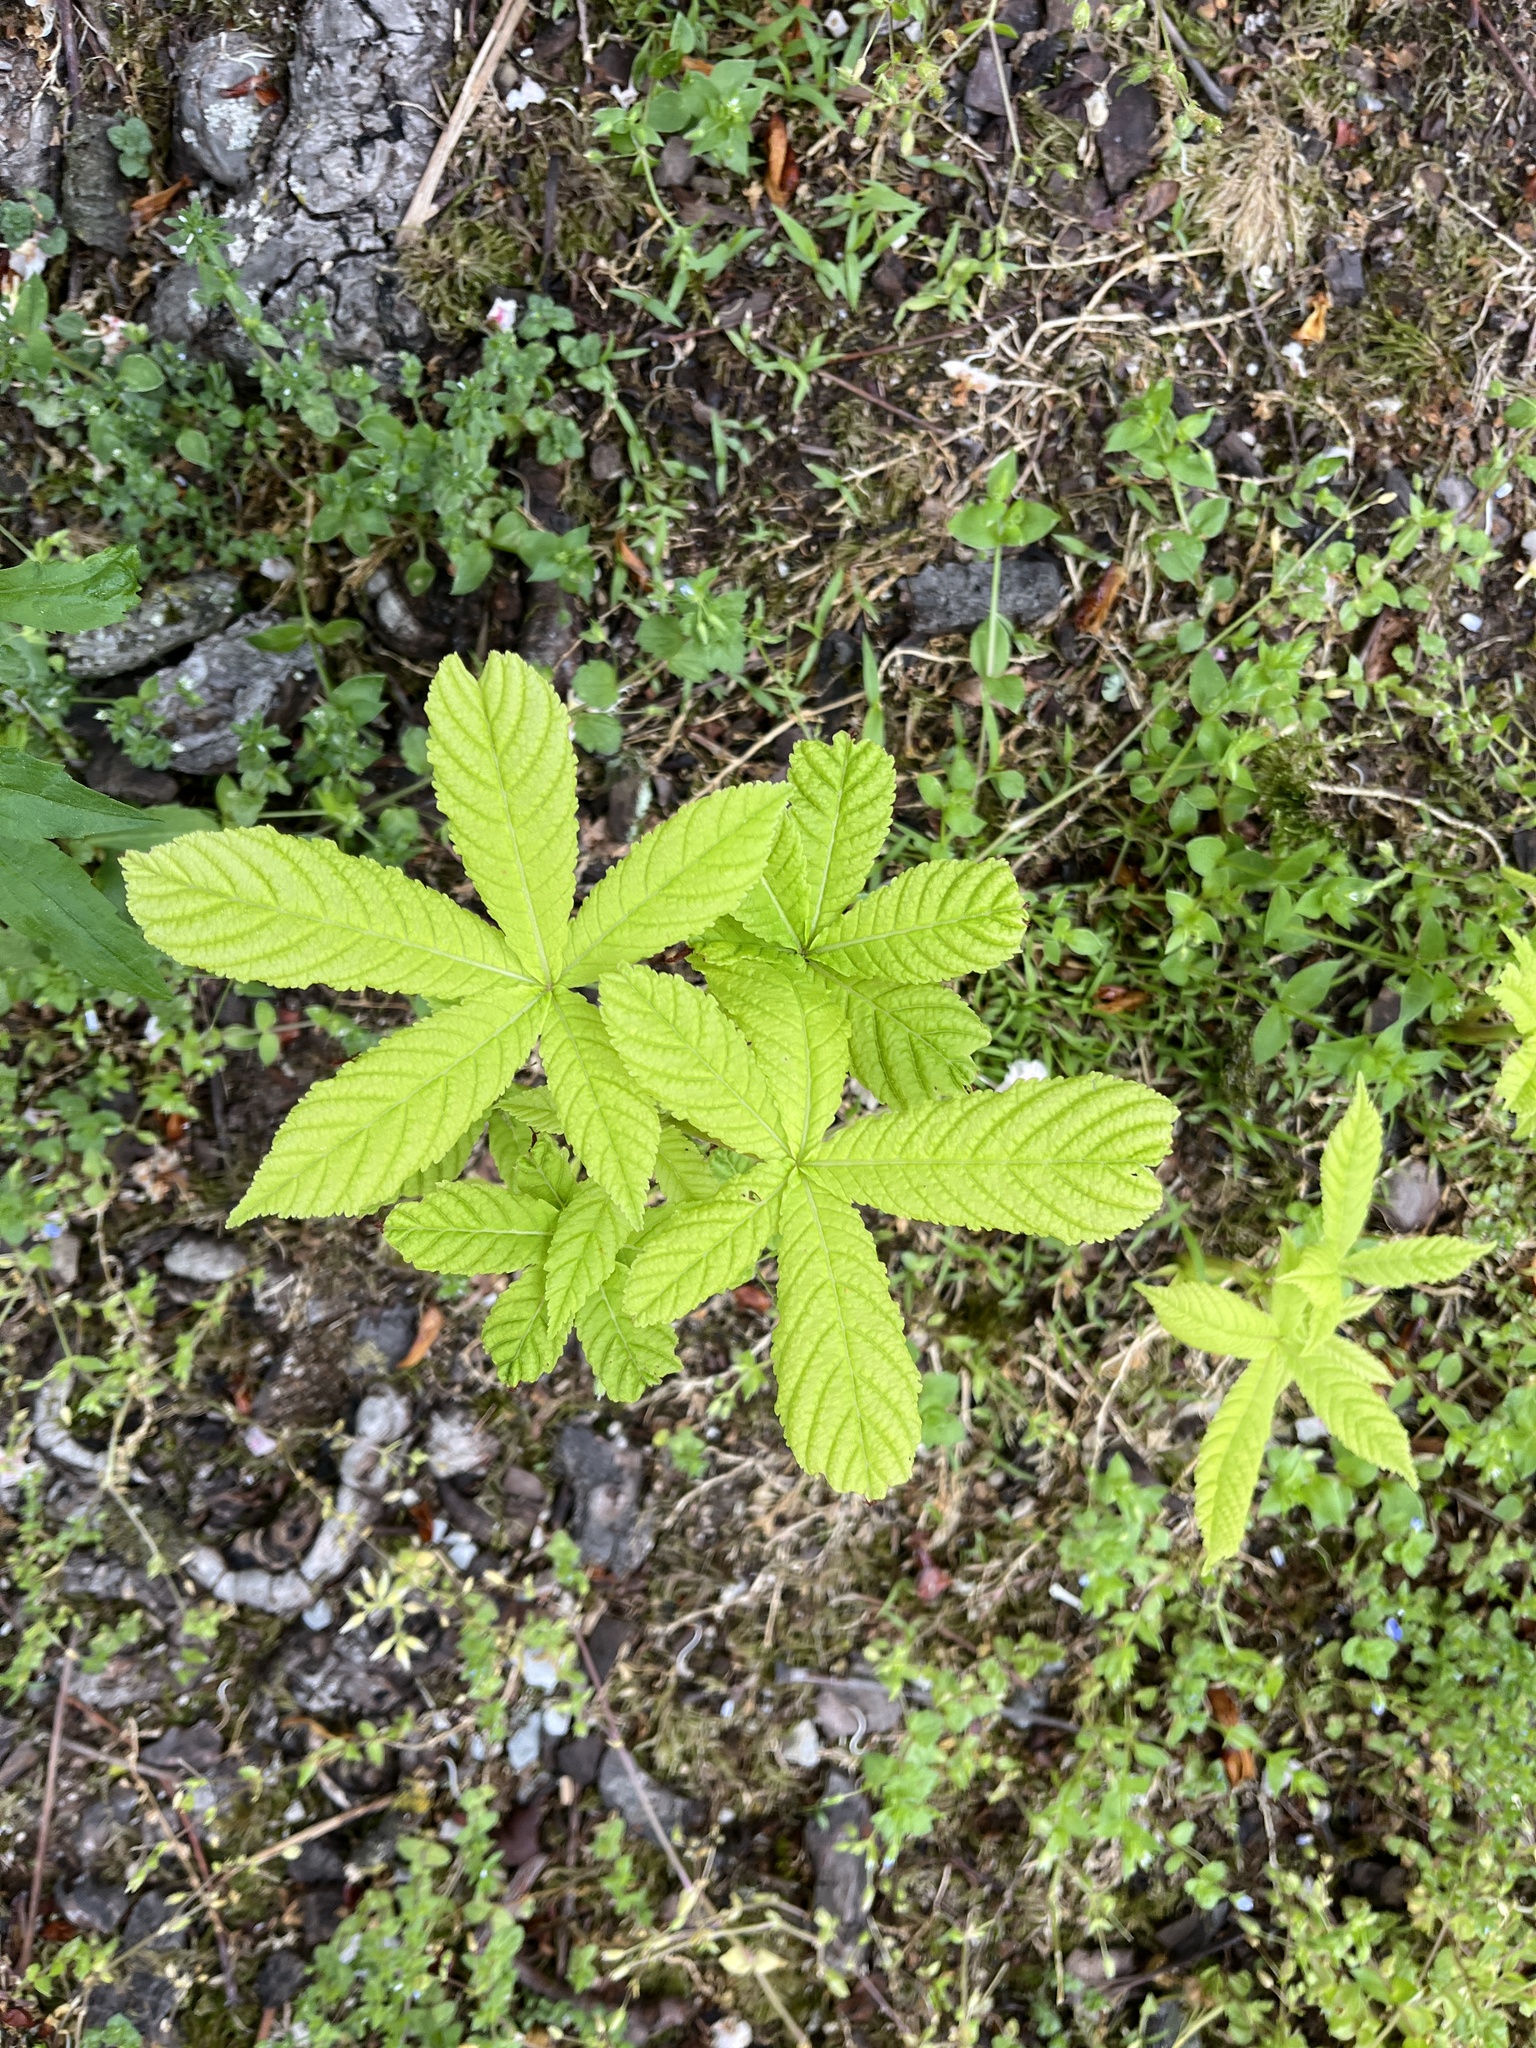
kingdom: Plantae
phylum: Tracheophyta
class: Magnoliopsida
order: Sapindales
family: Sapindaceae
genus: Aesculus
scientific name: Aesculus hippocastanum
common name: Horse-chestnut
